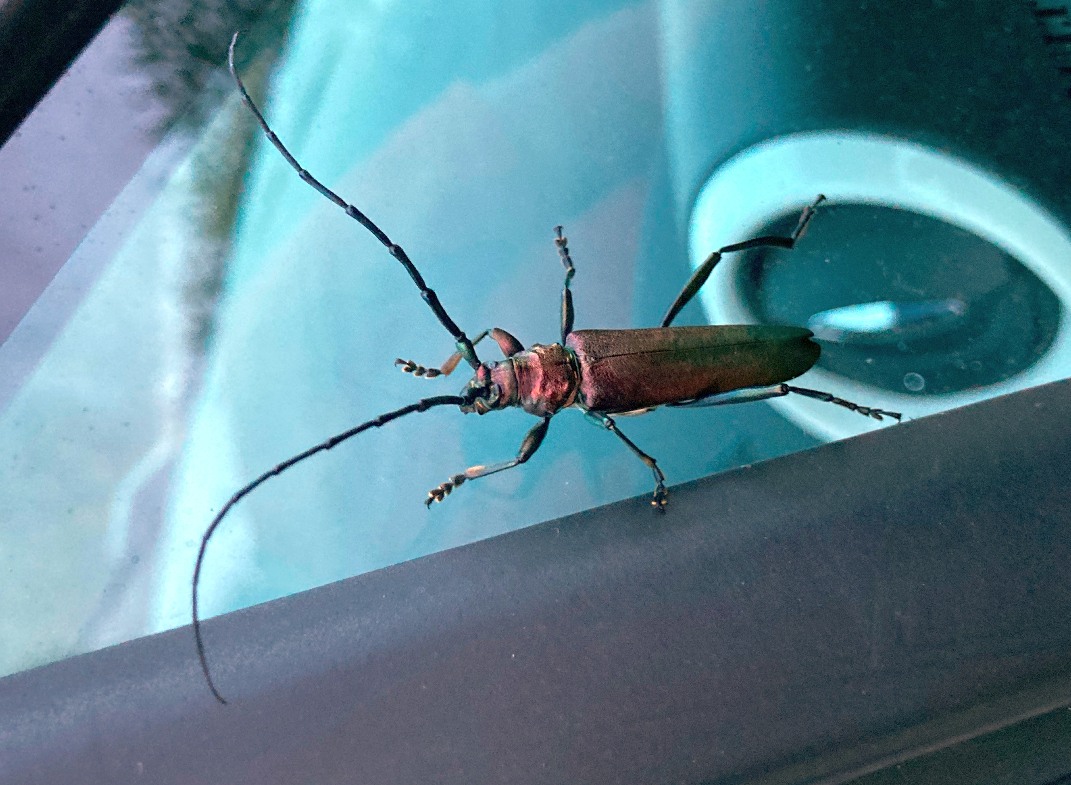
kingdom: Animalia
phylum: Arthropoda
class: Insecta
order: Coleoptera
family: Cerambycidae
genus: Aromia
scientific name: Aromia moschata
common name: Musk beetle
